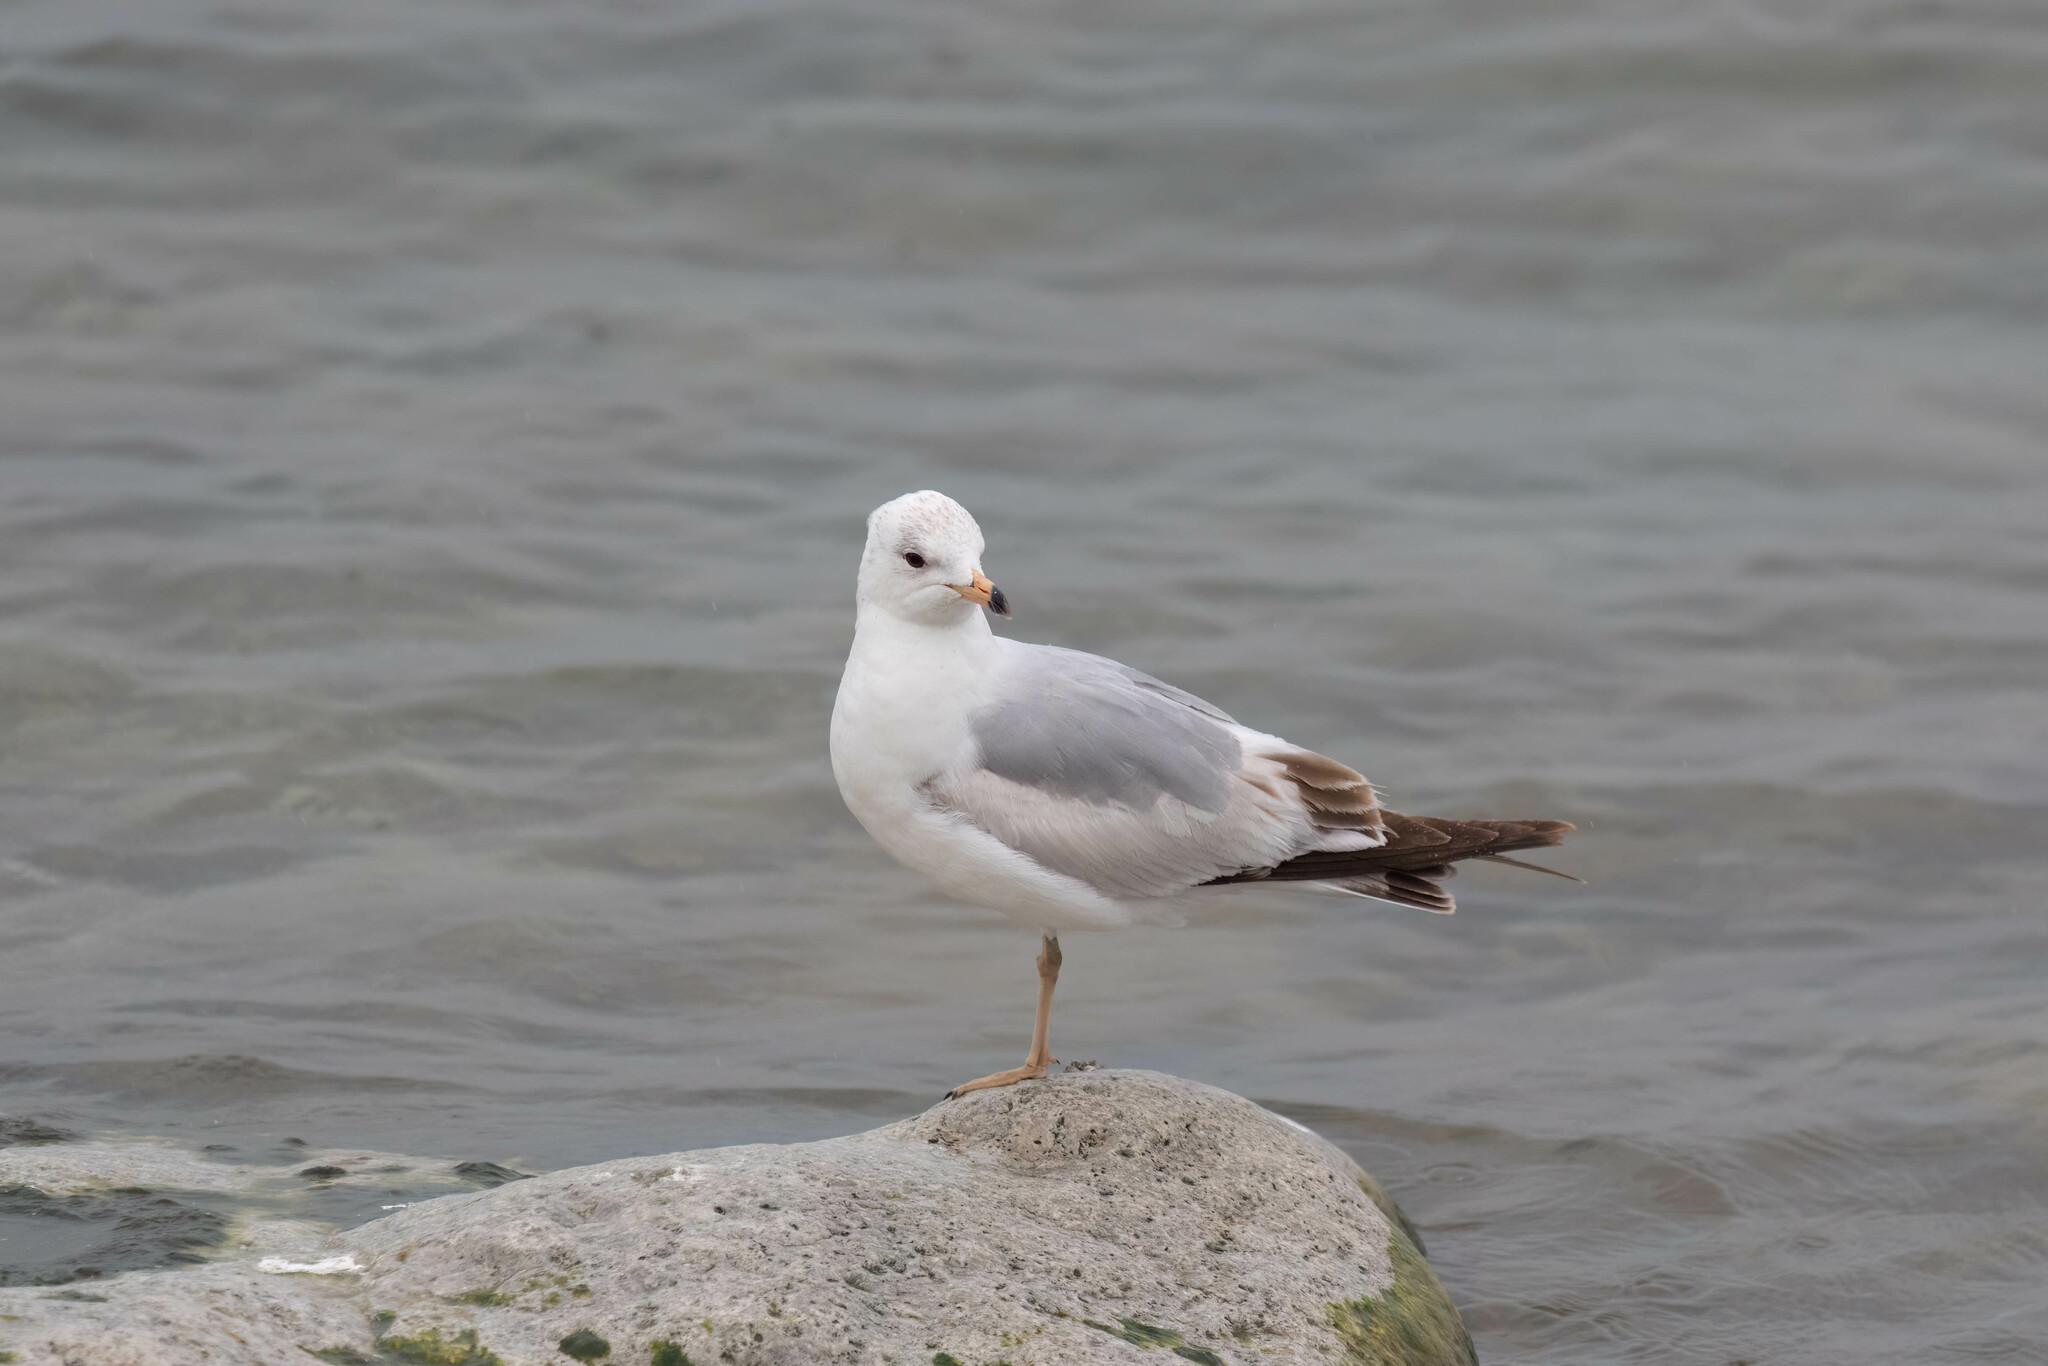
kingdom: Animalia
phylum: Chordata
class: Aves
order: Charadriiformes
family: Laridae
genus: Larus
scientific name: Larus delawarensis
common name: Ring-billed gull
